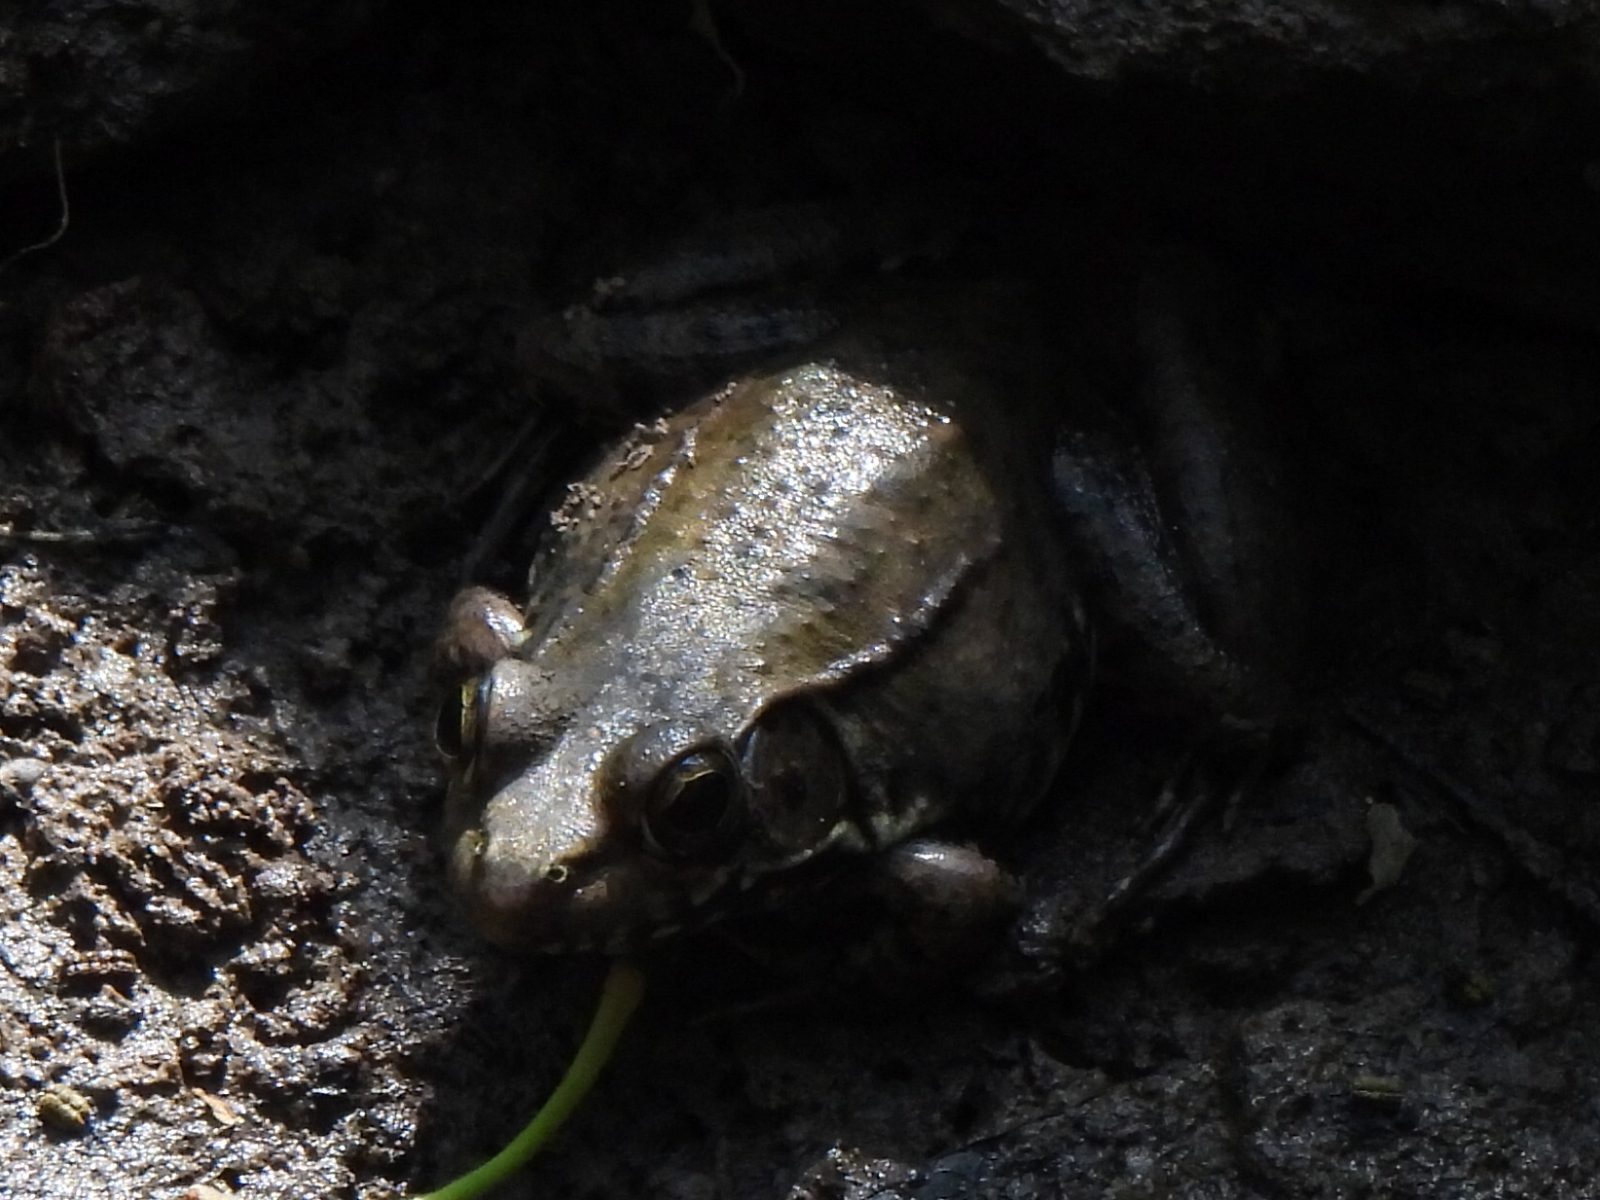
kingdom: Animalia
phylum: Chordata
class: Amphibia
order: Anura
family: Ranidae
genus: Lithobates
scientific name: Lithobates clamitans
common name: Green frog
